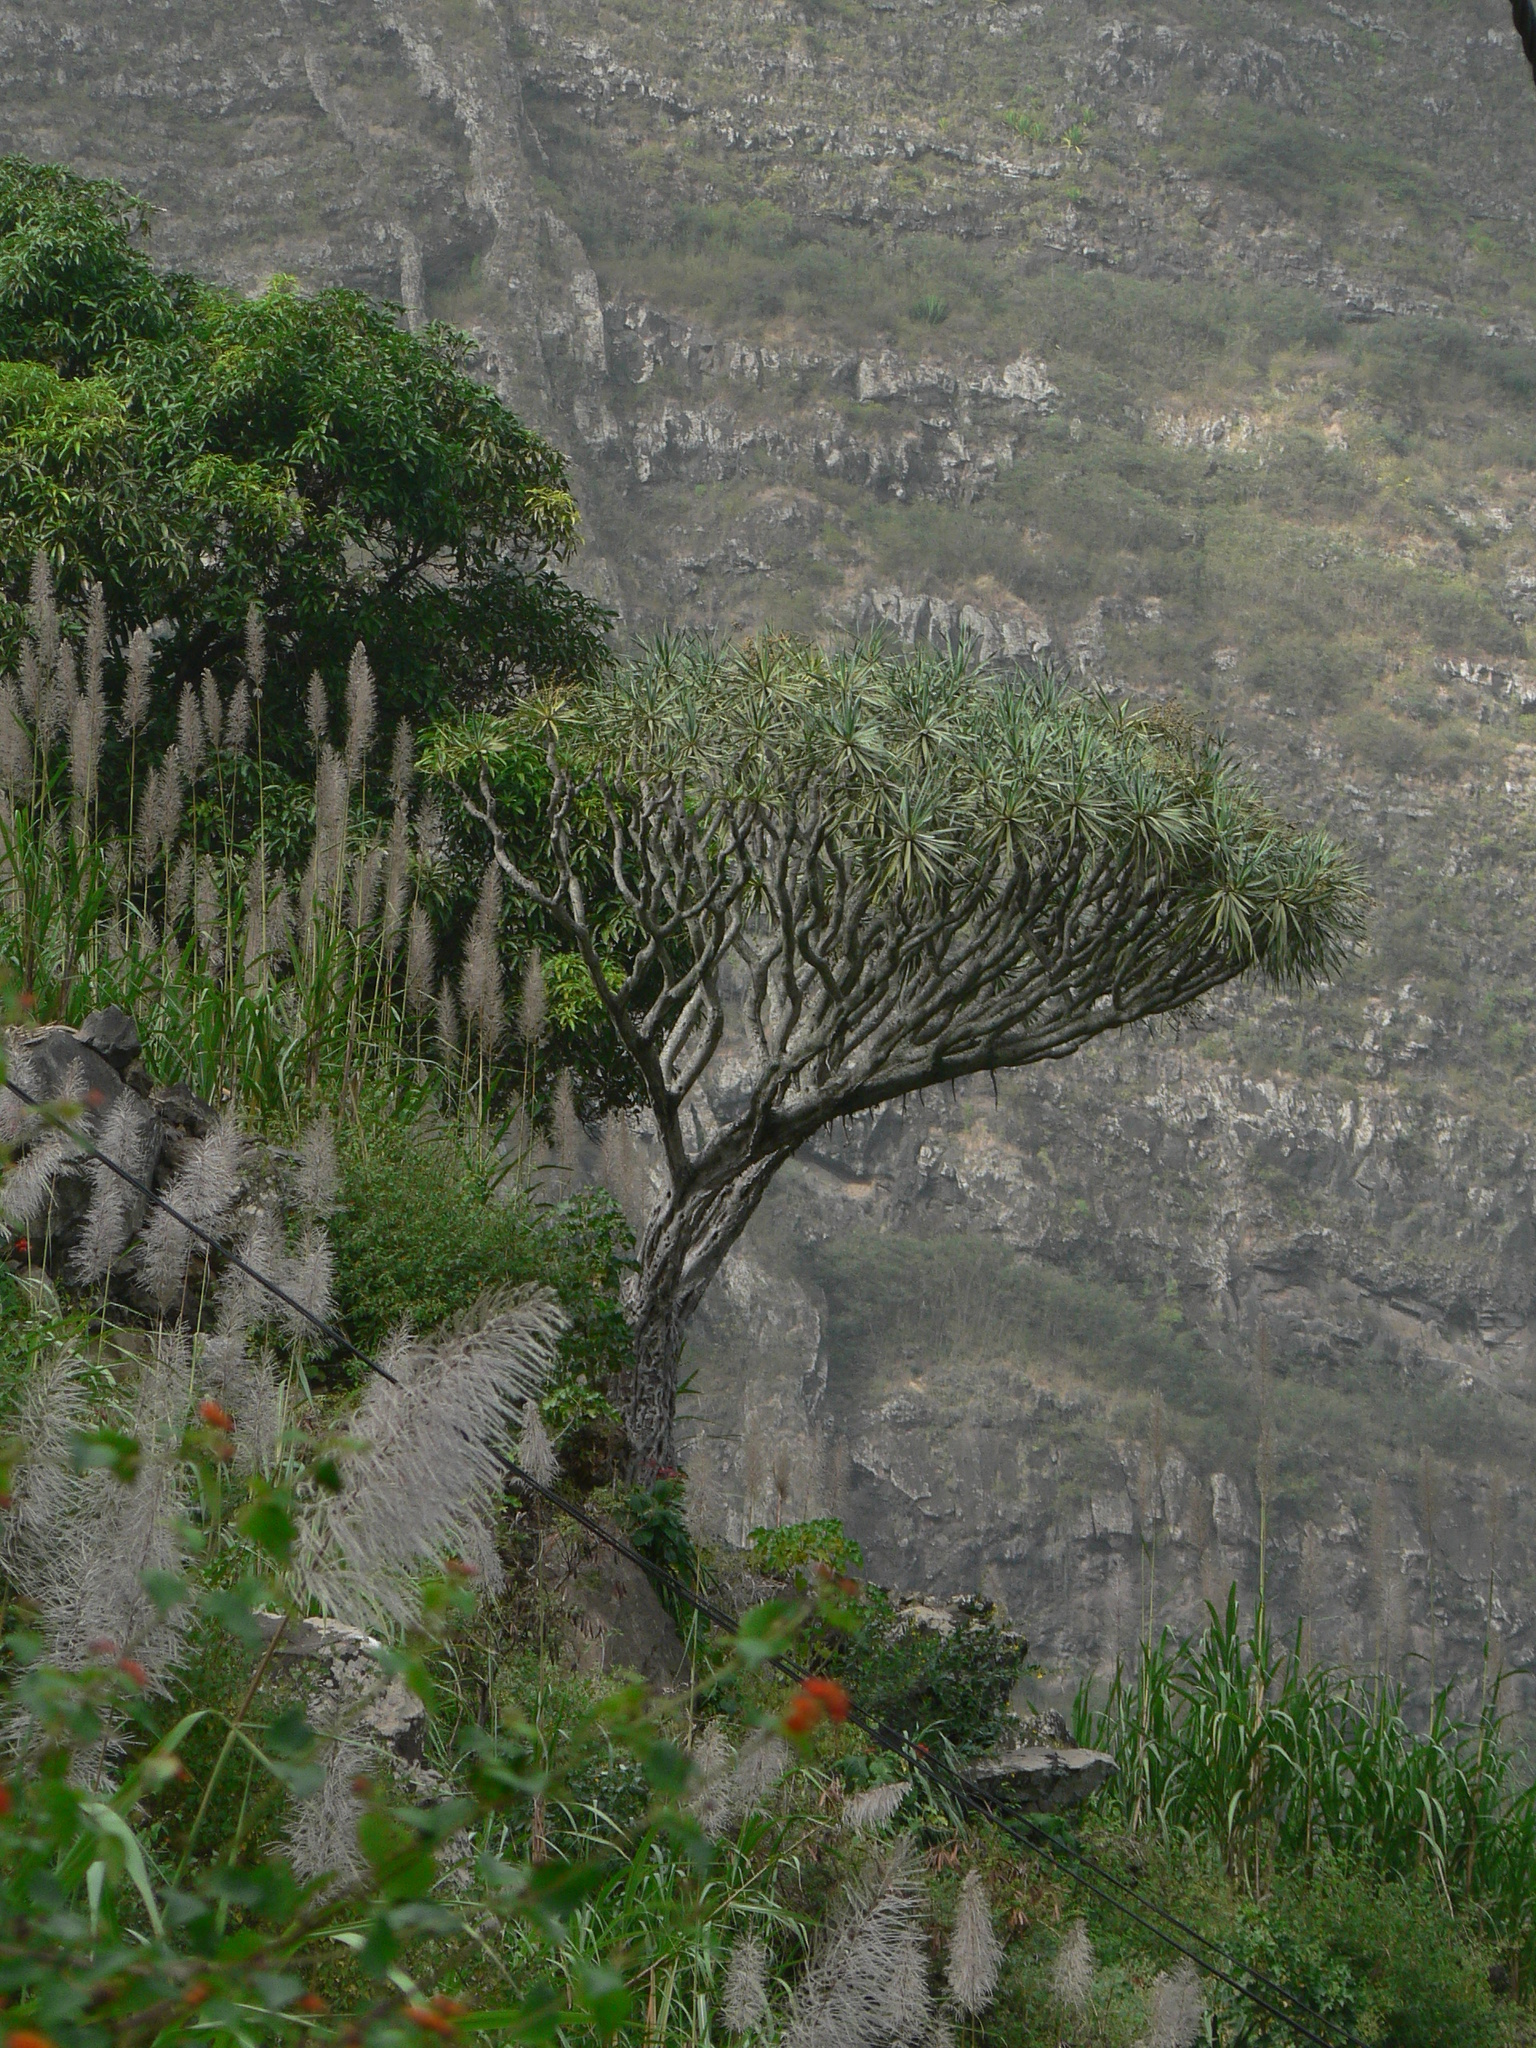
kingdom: Plantae
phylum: Tracheophyta
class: Liliopsida
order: Asparagales
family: Asparagaceae
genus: Dracaena
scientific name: Dracaena draco
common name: Canary island dragon tree
